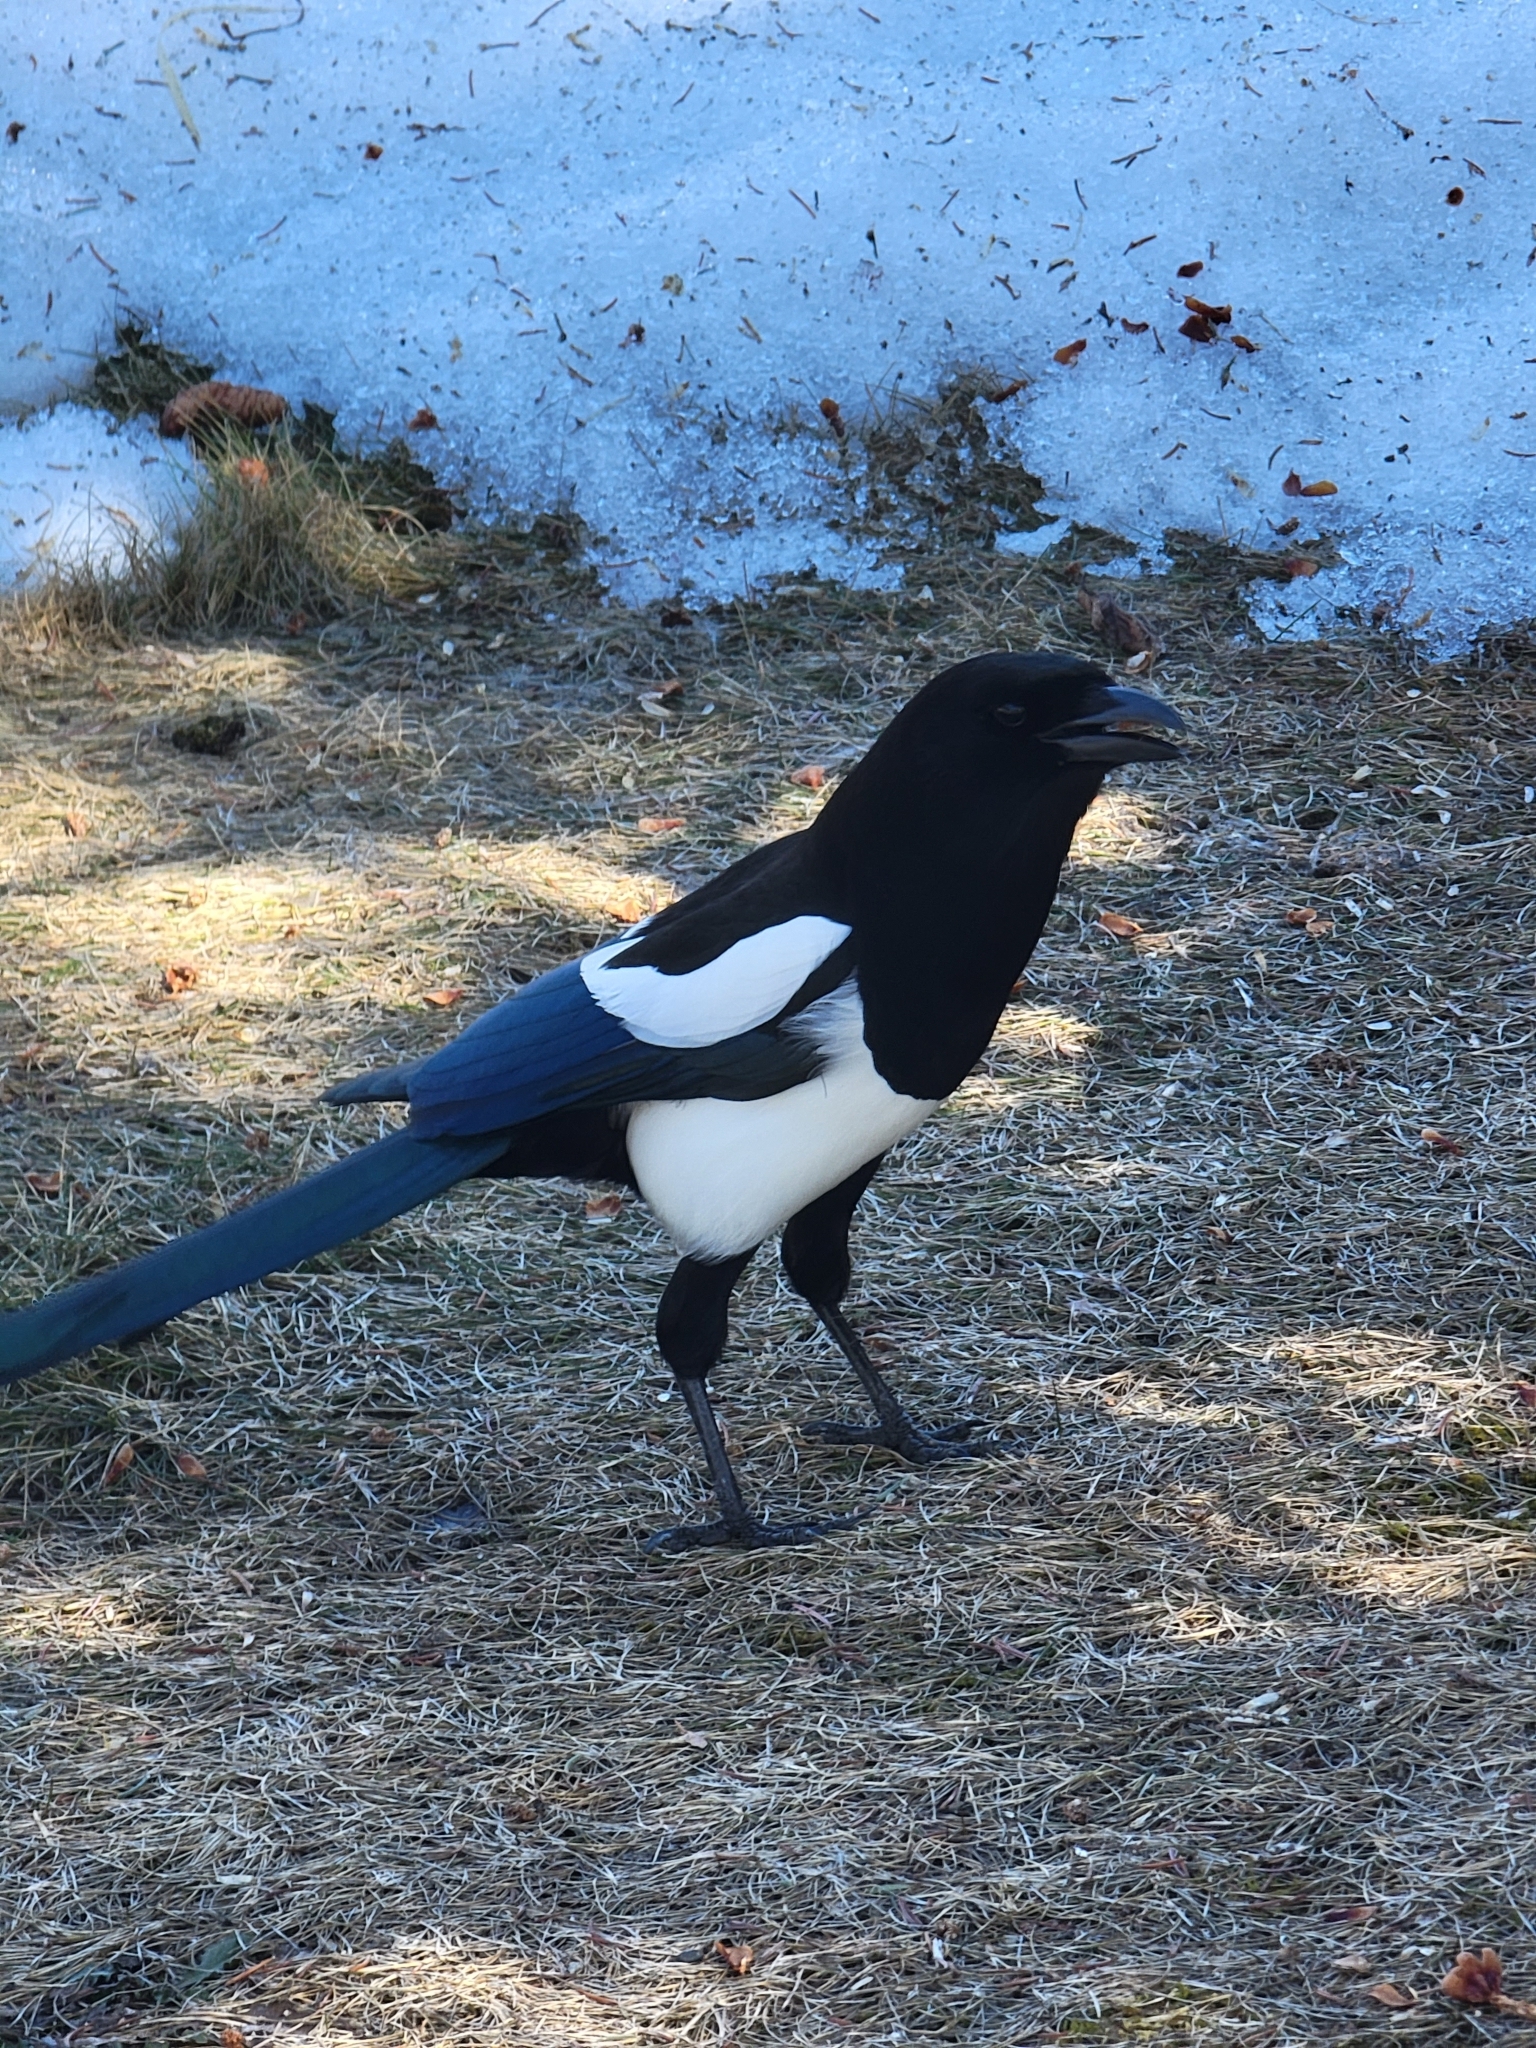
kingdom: Animalia
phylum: Chordata
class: Aves
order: Passeriformes
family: Corvidae
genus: Pica
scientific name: Pica hudsonia
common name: Black-billed magpie
